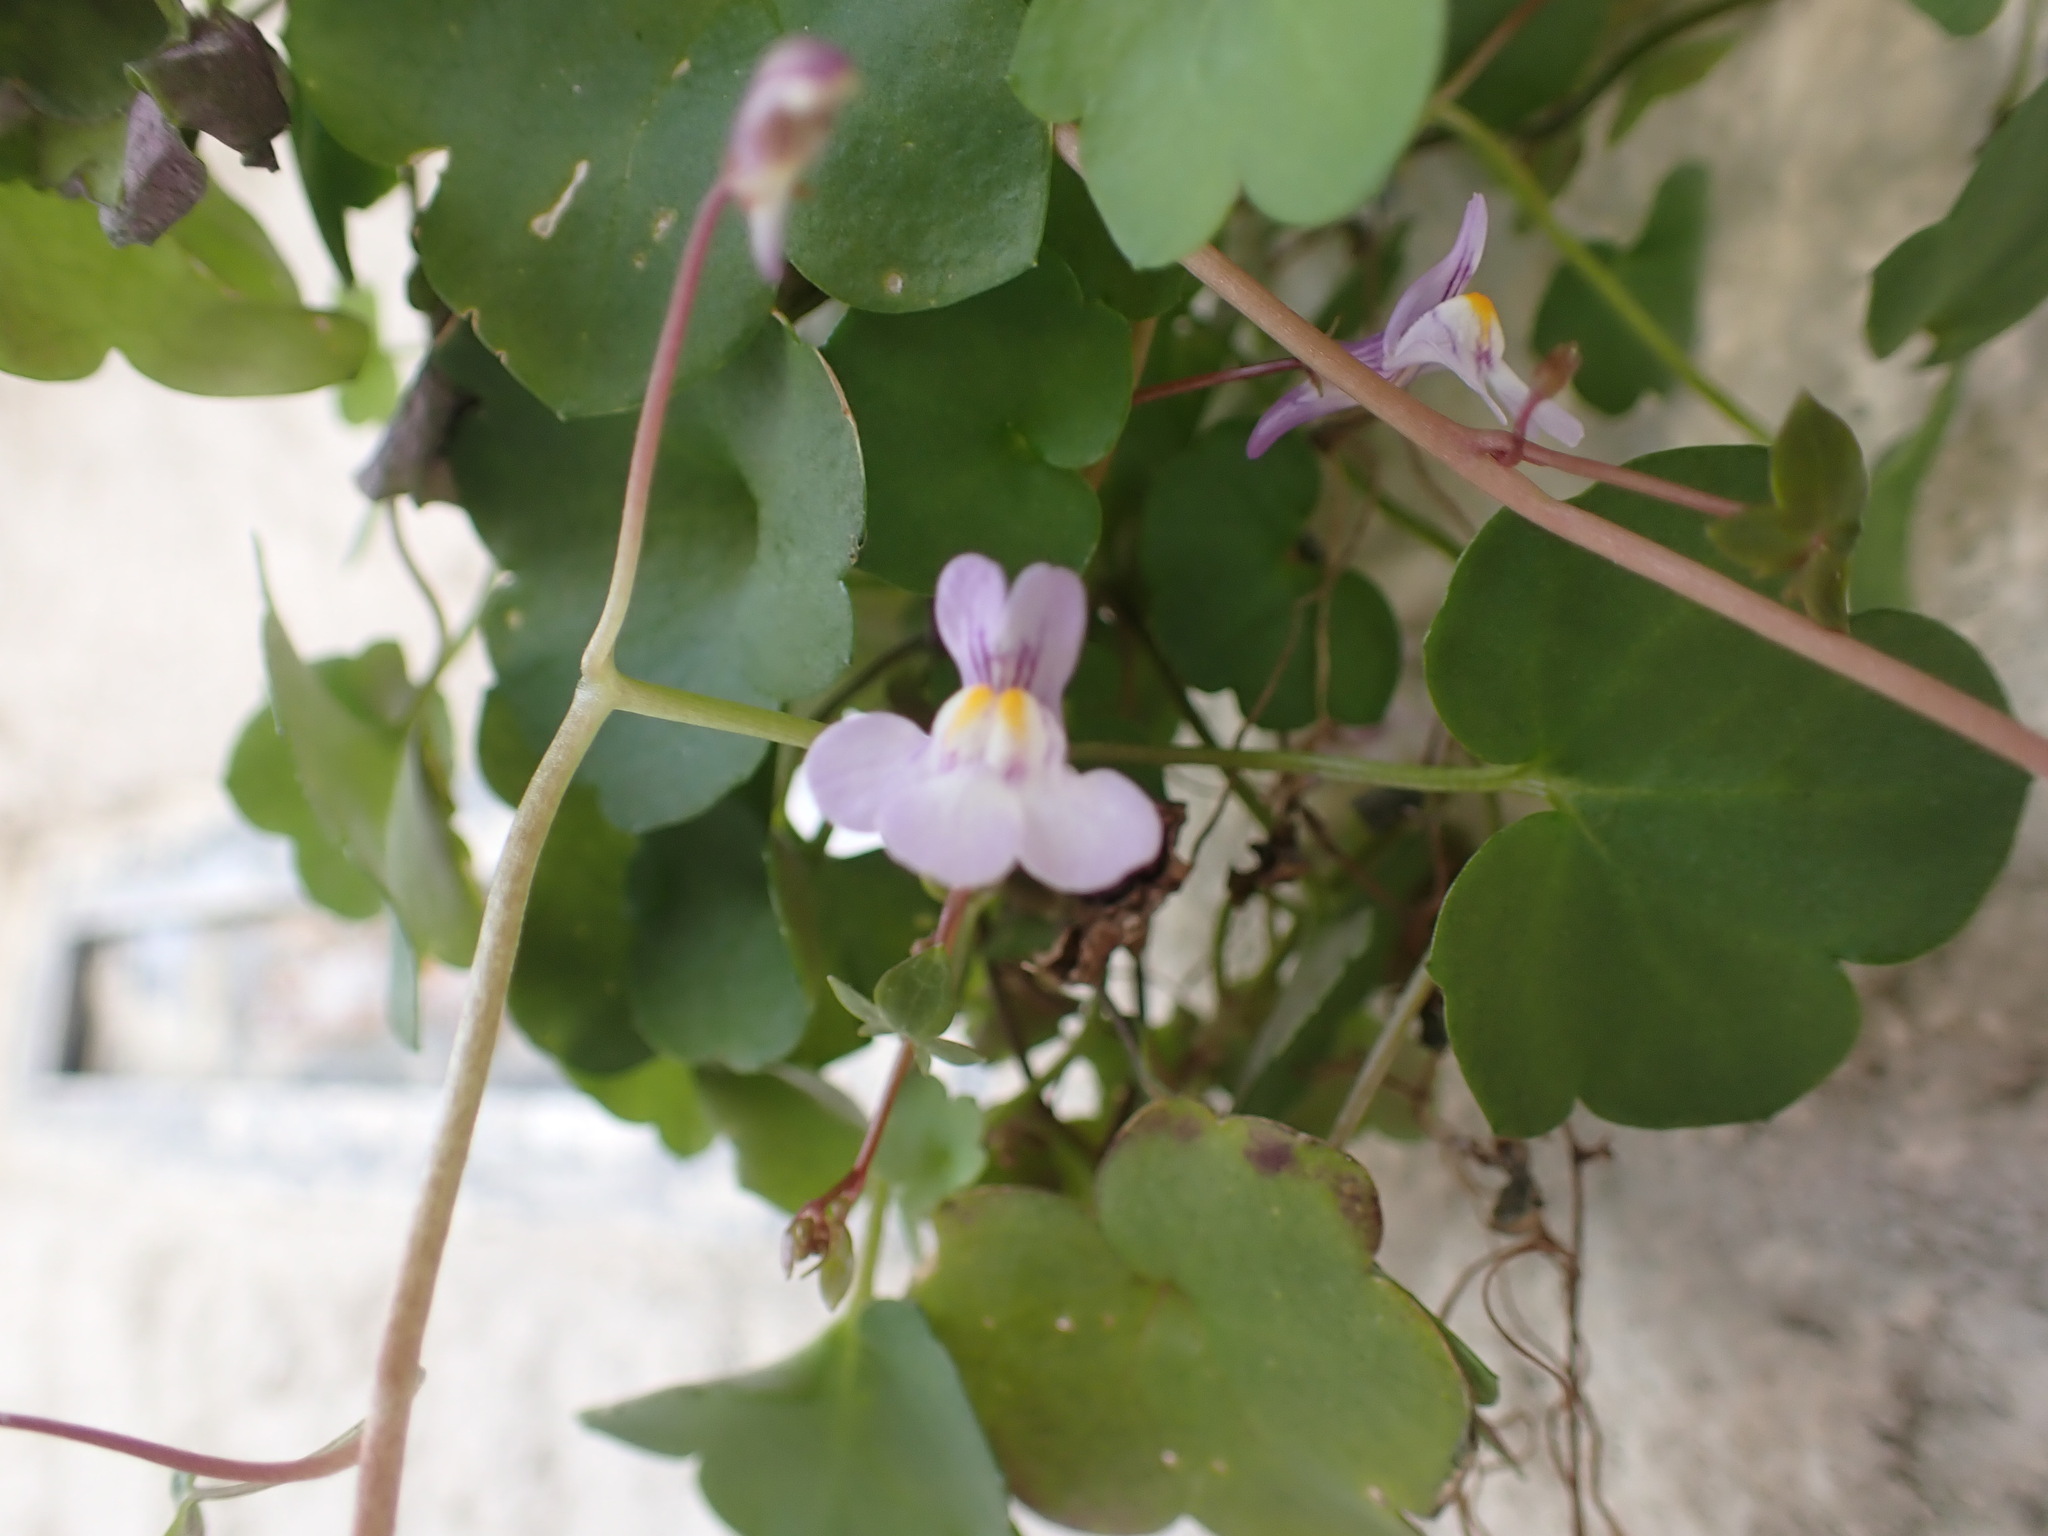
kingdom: Plantae
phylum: Tracheophyta
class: Magnoliopsida
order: Lamiales
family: Plantaginaceae
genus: Cymbalaria
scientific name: Cymbalaria muralis
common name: Ivy-leaved toadflax
